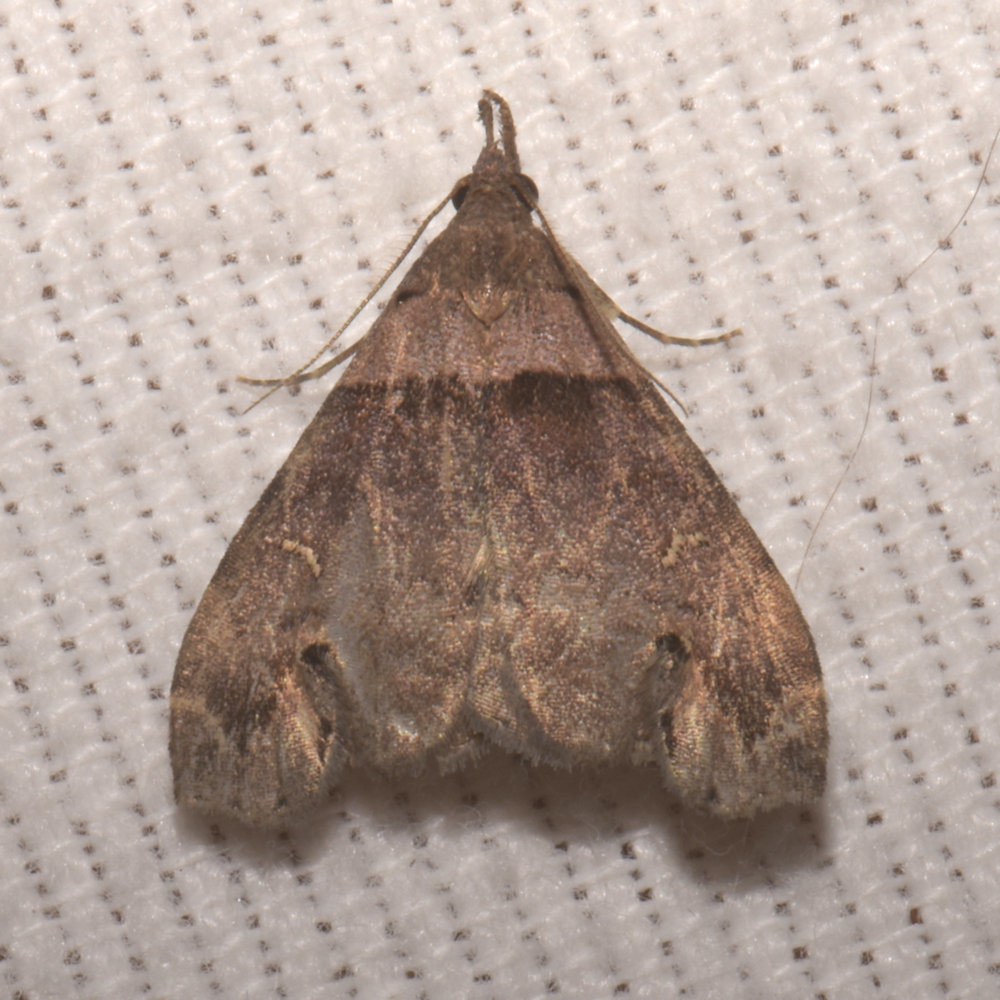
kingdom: Animalia
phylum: Arthropoda
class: Insecta
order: Lepidoptera
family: Erebidae
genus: Lascoria
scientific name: Lascoria ambigualis
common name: Ambiguous moth
